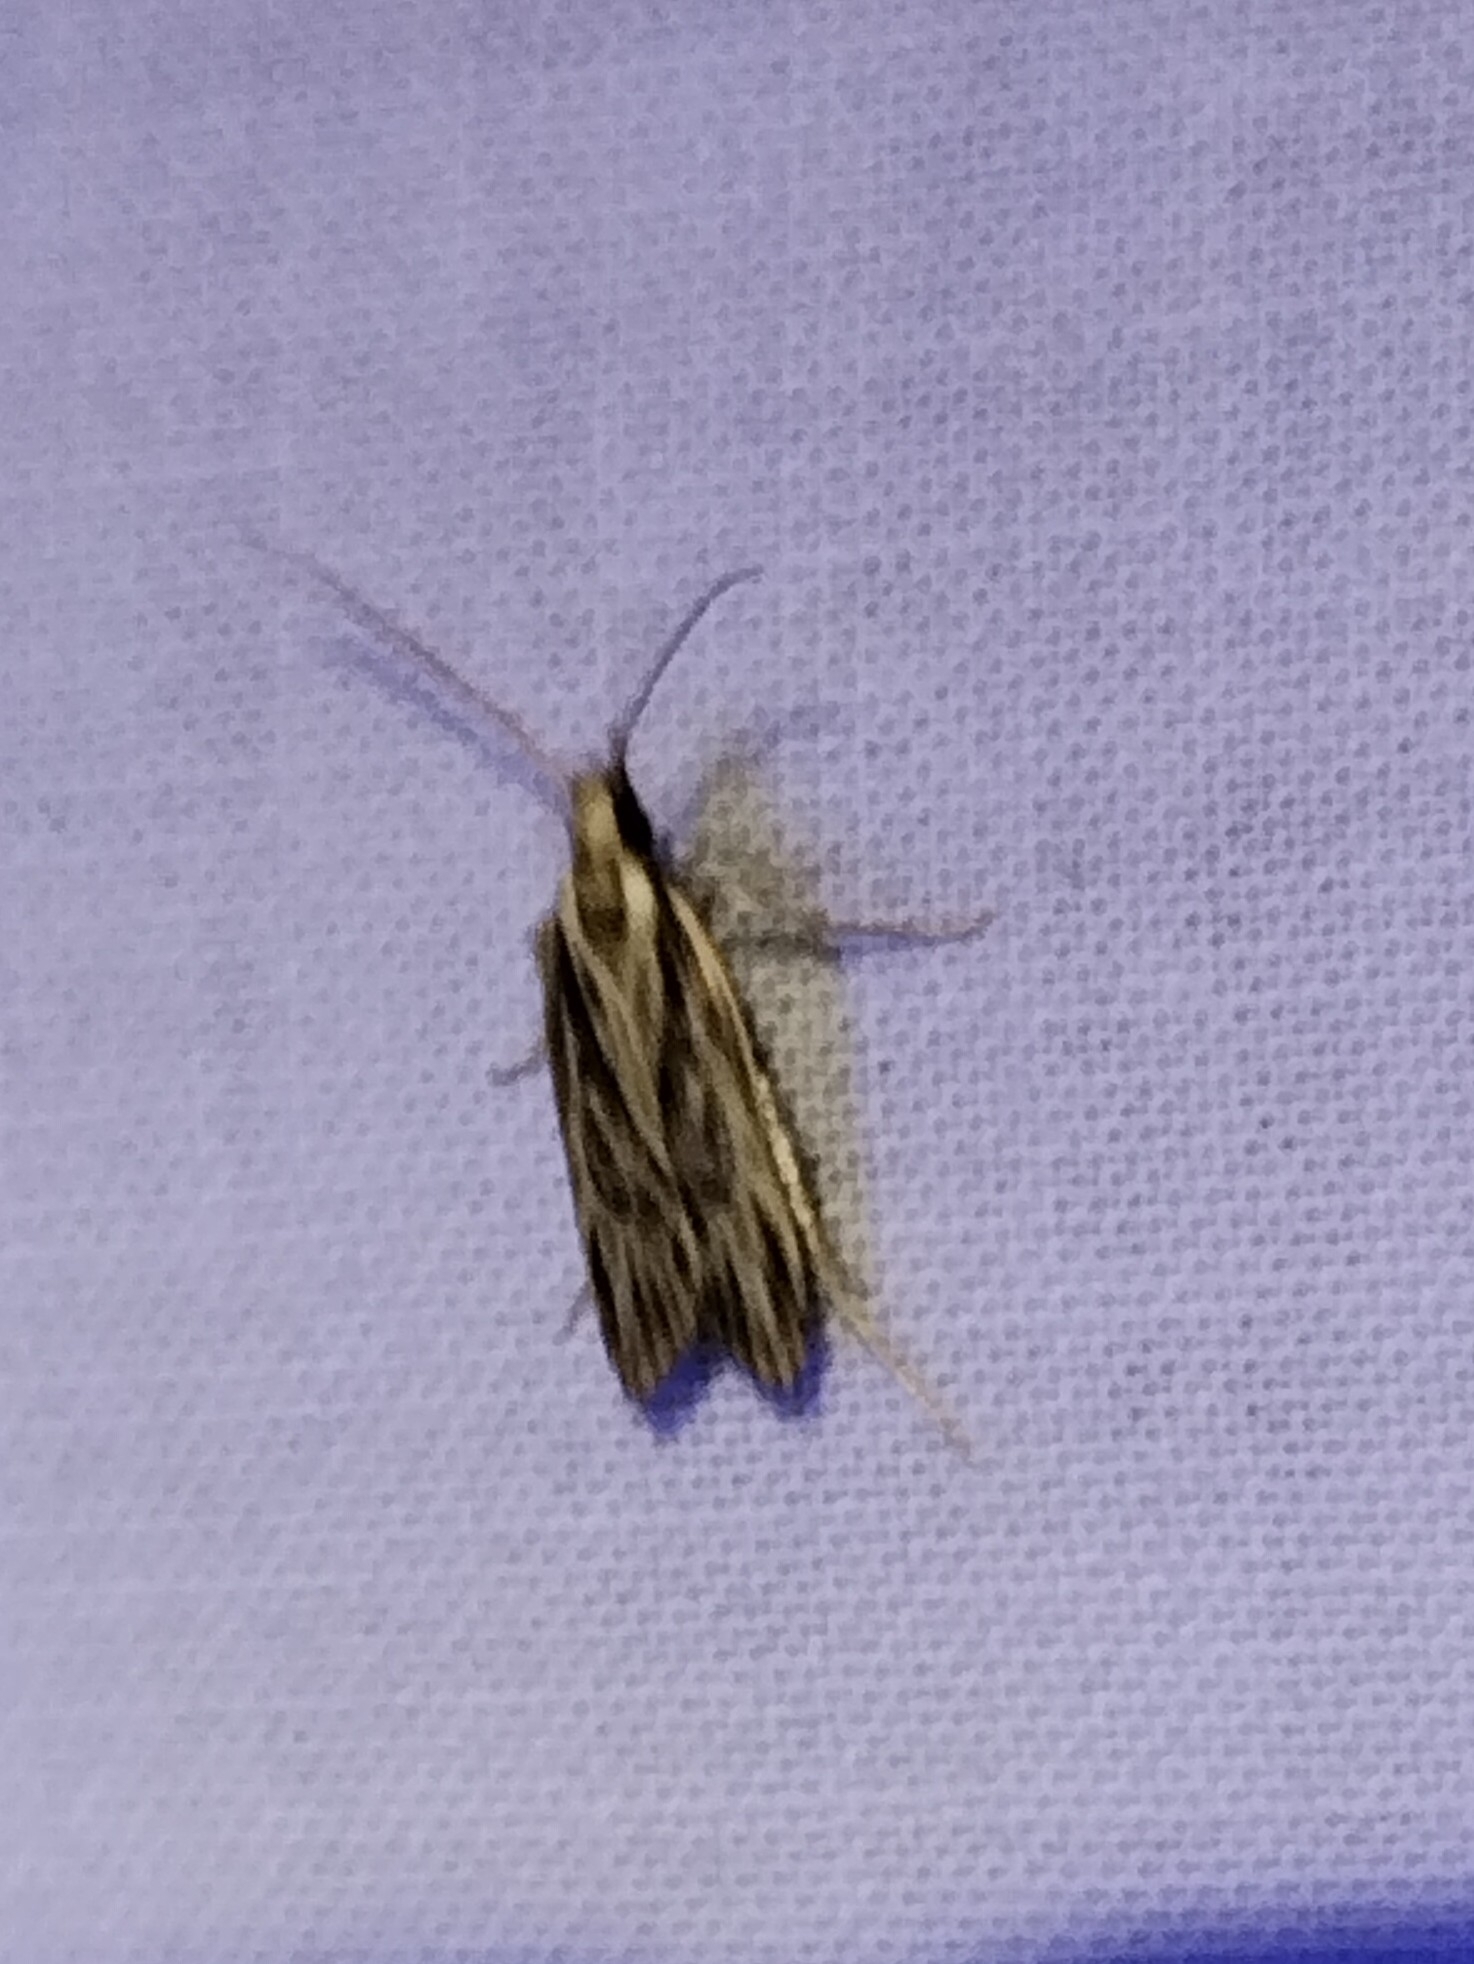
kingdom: Animalia
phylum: Arthropoda
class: Insecta
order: Lepidoptera
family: Depressariidae
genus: Eupragia
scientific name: Eupragia hospita
